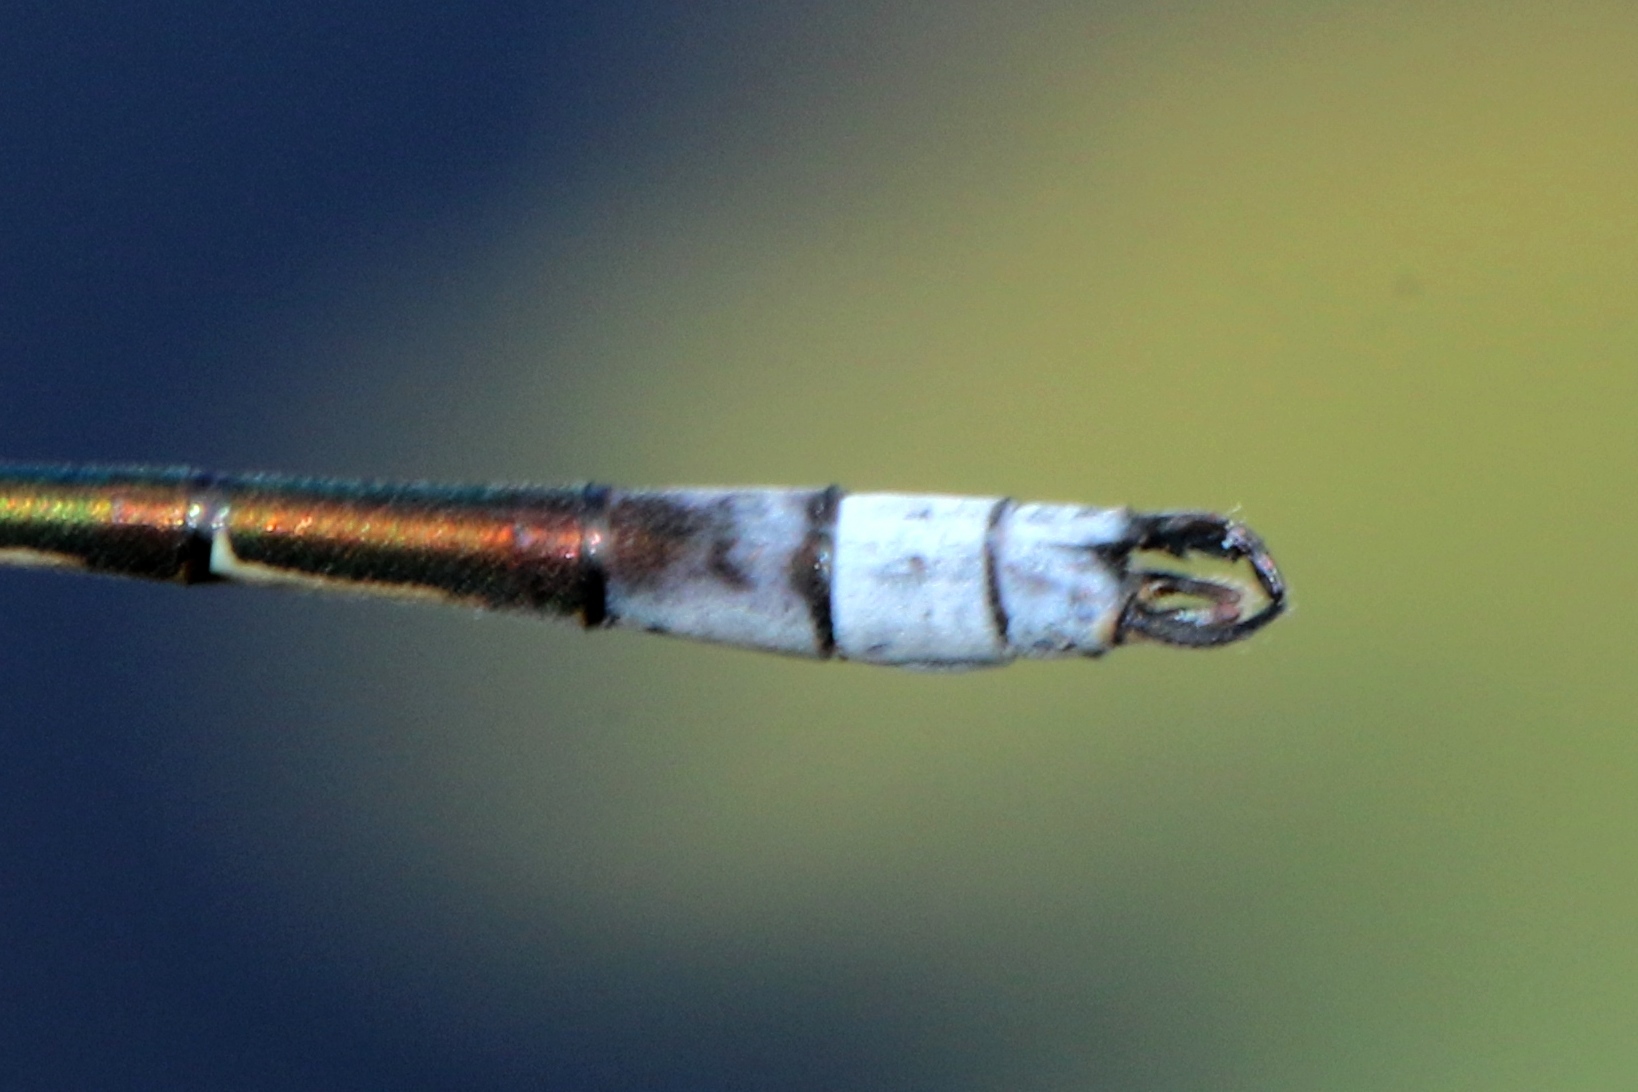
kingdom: Animalia
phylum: Arthropoda
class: Insecta
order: Odonata
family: Lestidae
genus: Lestes
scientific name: Lestes disjunctus
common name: Northern spreadwing
